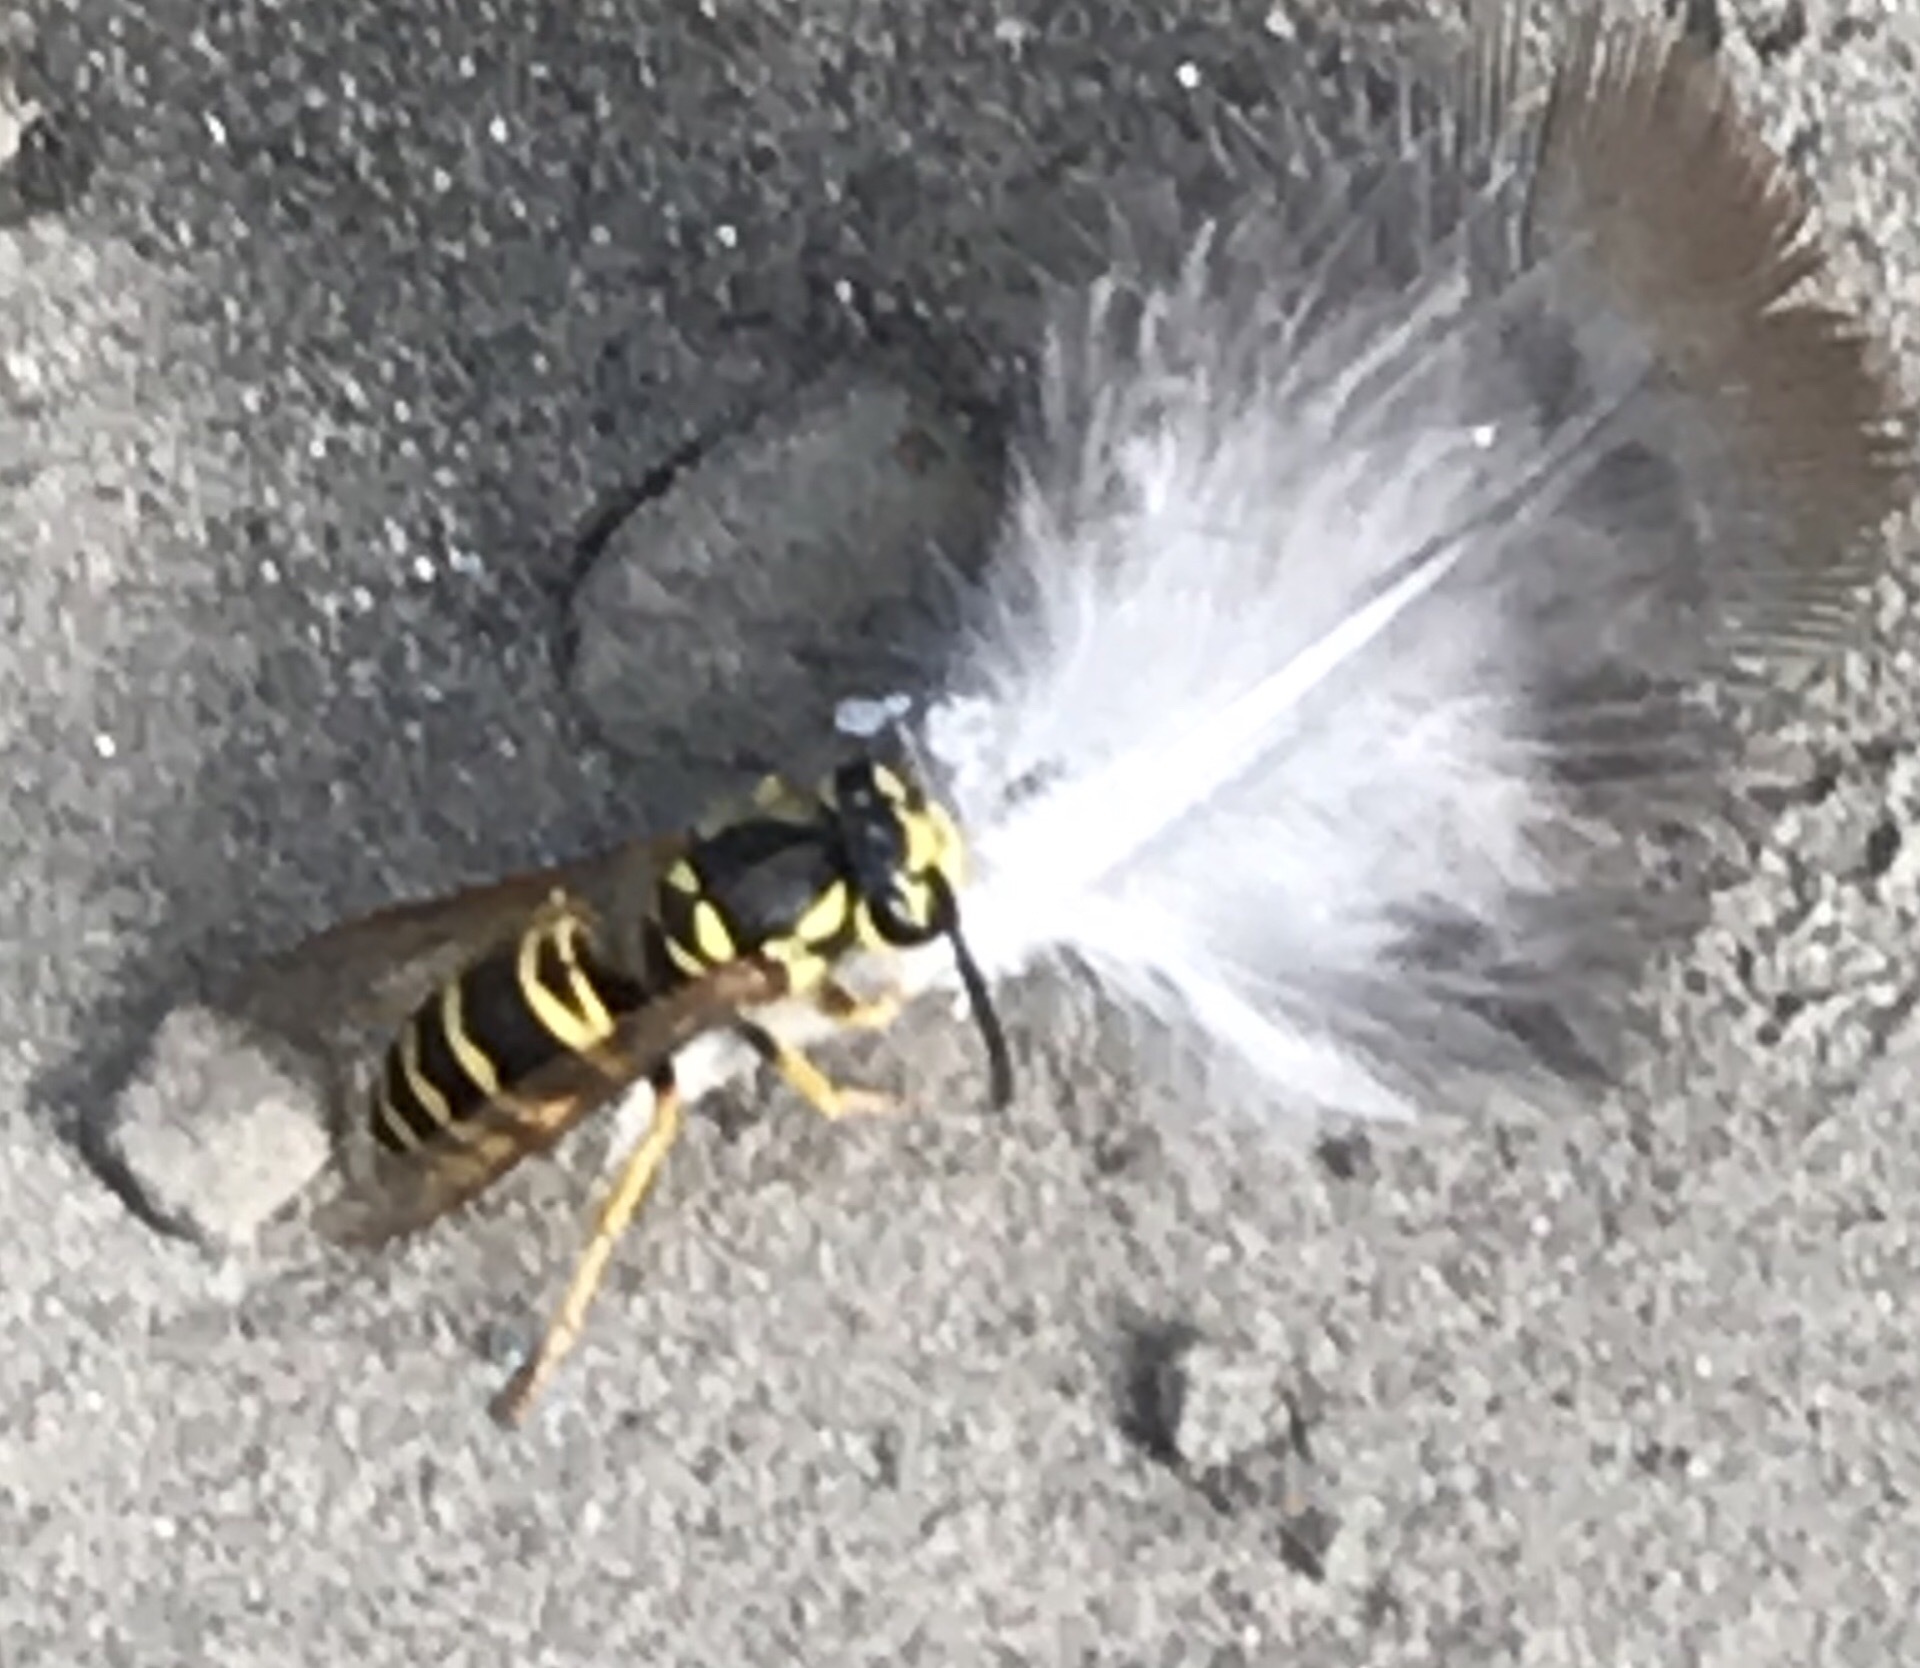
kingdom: Animalia
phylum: Arthropoda
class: Insecta
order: Hymenoptera
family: Vespidae
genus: Vespula
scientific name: Vespula maculifrons
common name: Eastern yellowjacket
